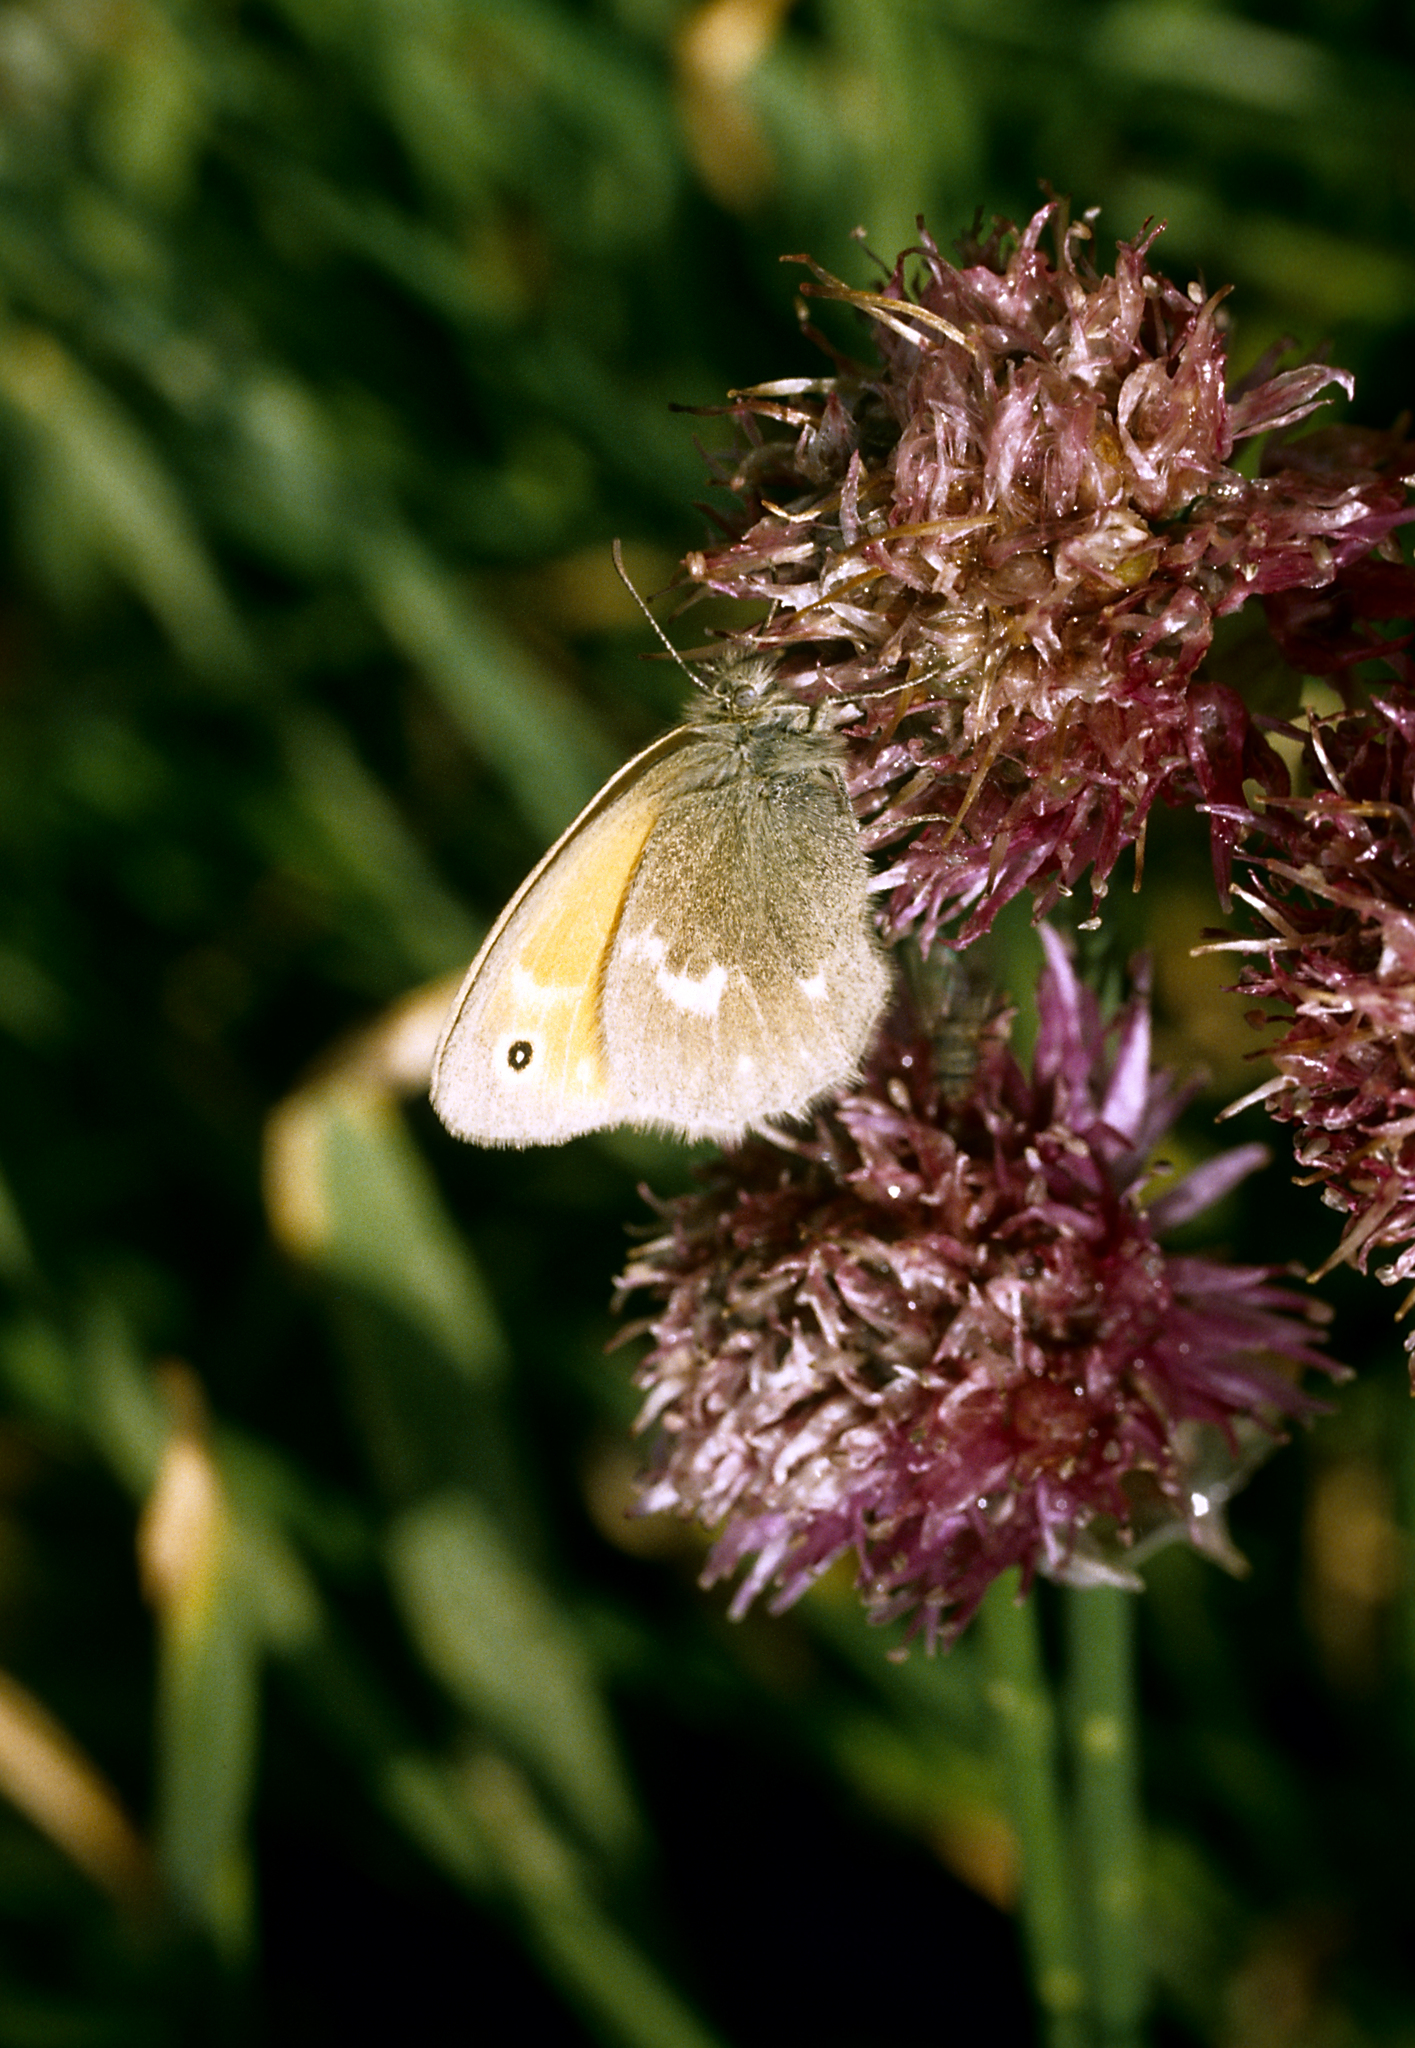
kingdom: Animalia
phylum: Arthropoda
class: Insecta
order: Lepidoptera
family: Nymphalidae
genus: Coenonympha
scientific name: Coenonympha tullia
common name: Large heath
